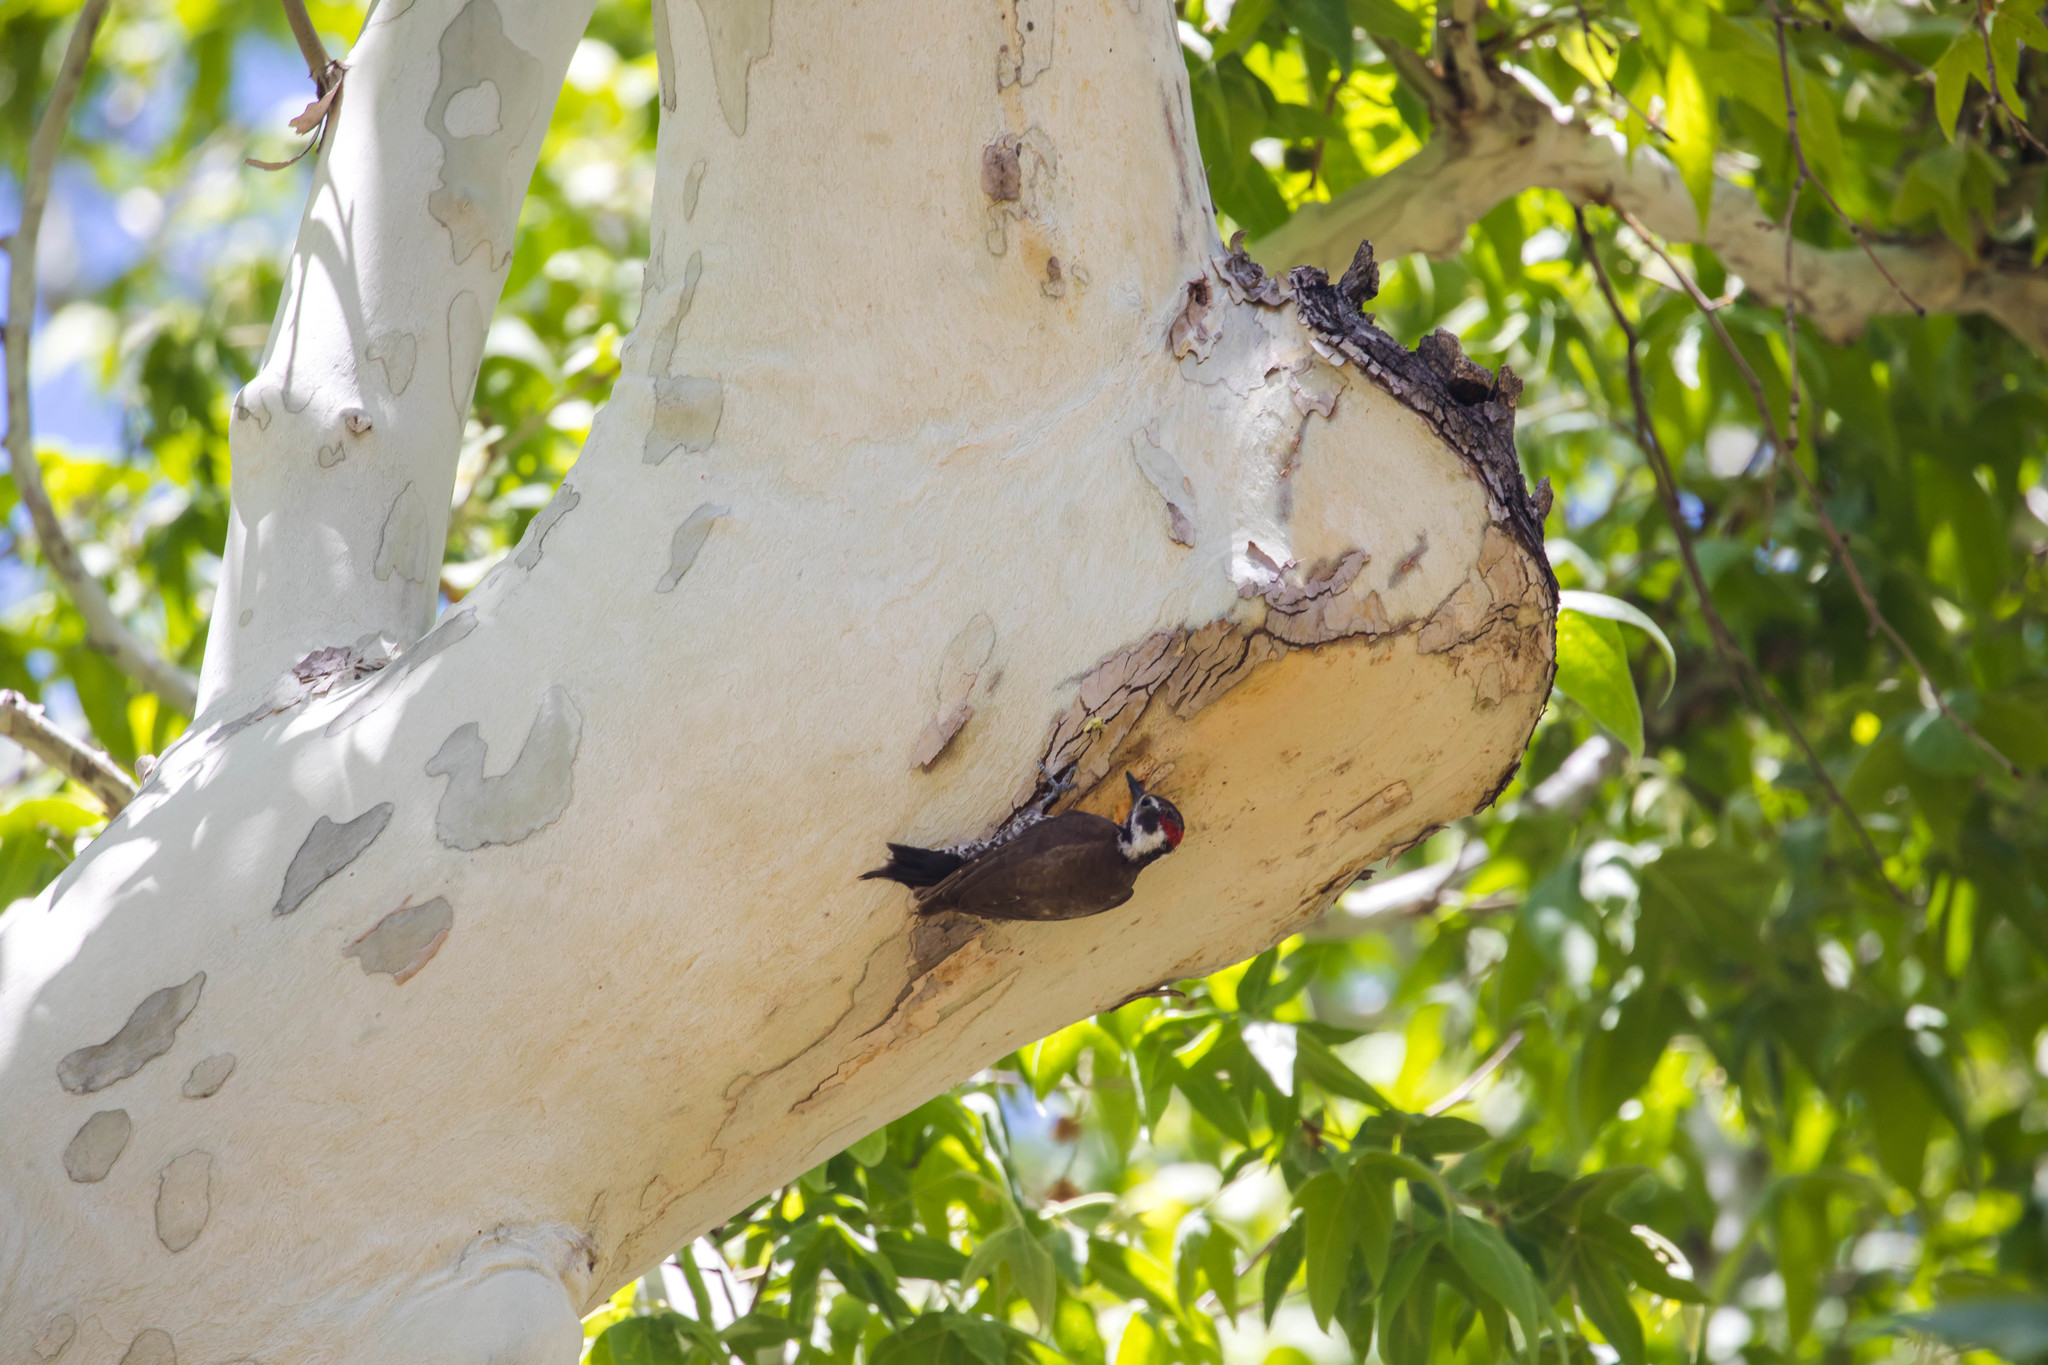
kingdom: Animalia
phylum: Chordata
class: Aves
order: Piciformes
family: Picidae
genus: Leuconotopicus
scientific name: Leuconotopicus arizonae
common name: Arizona woodpecker
